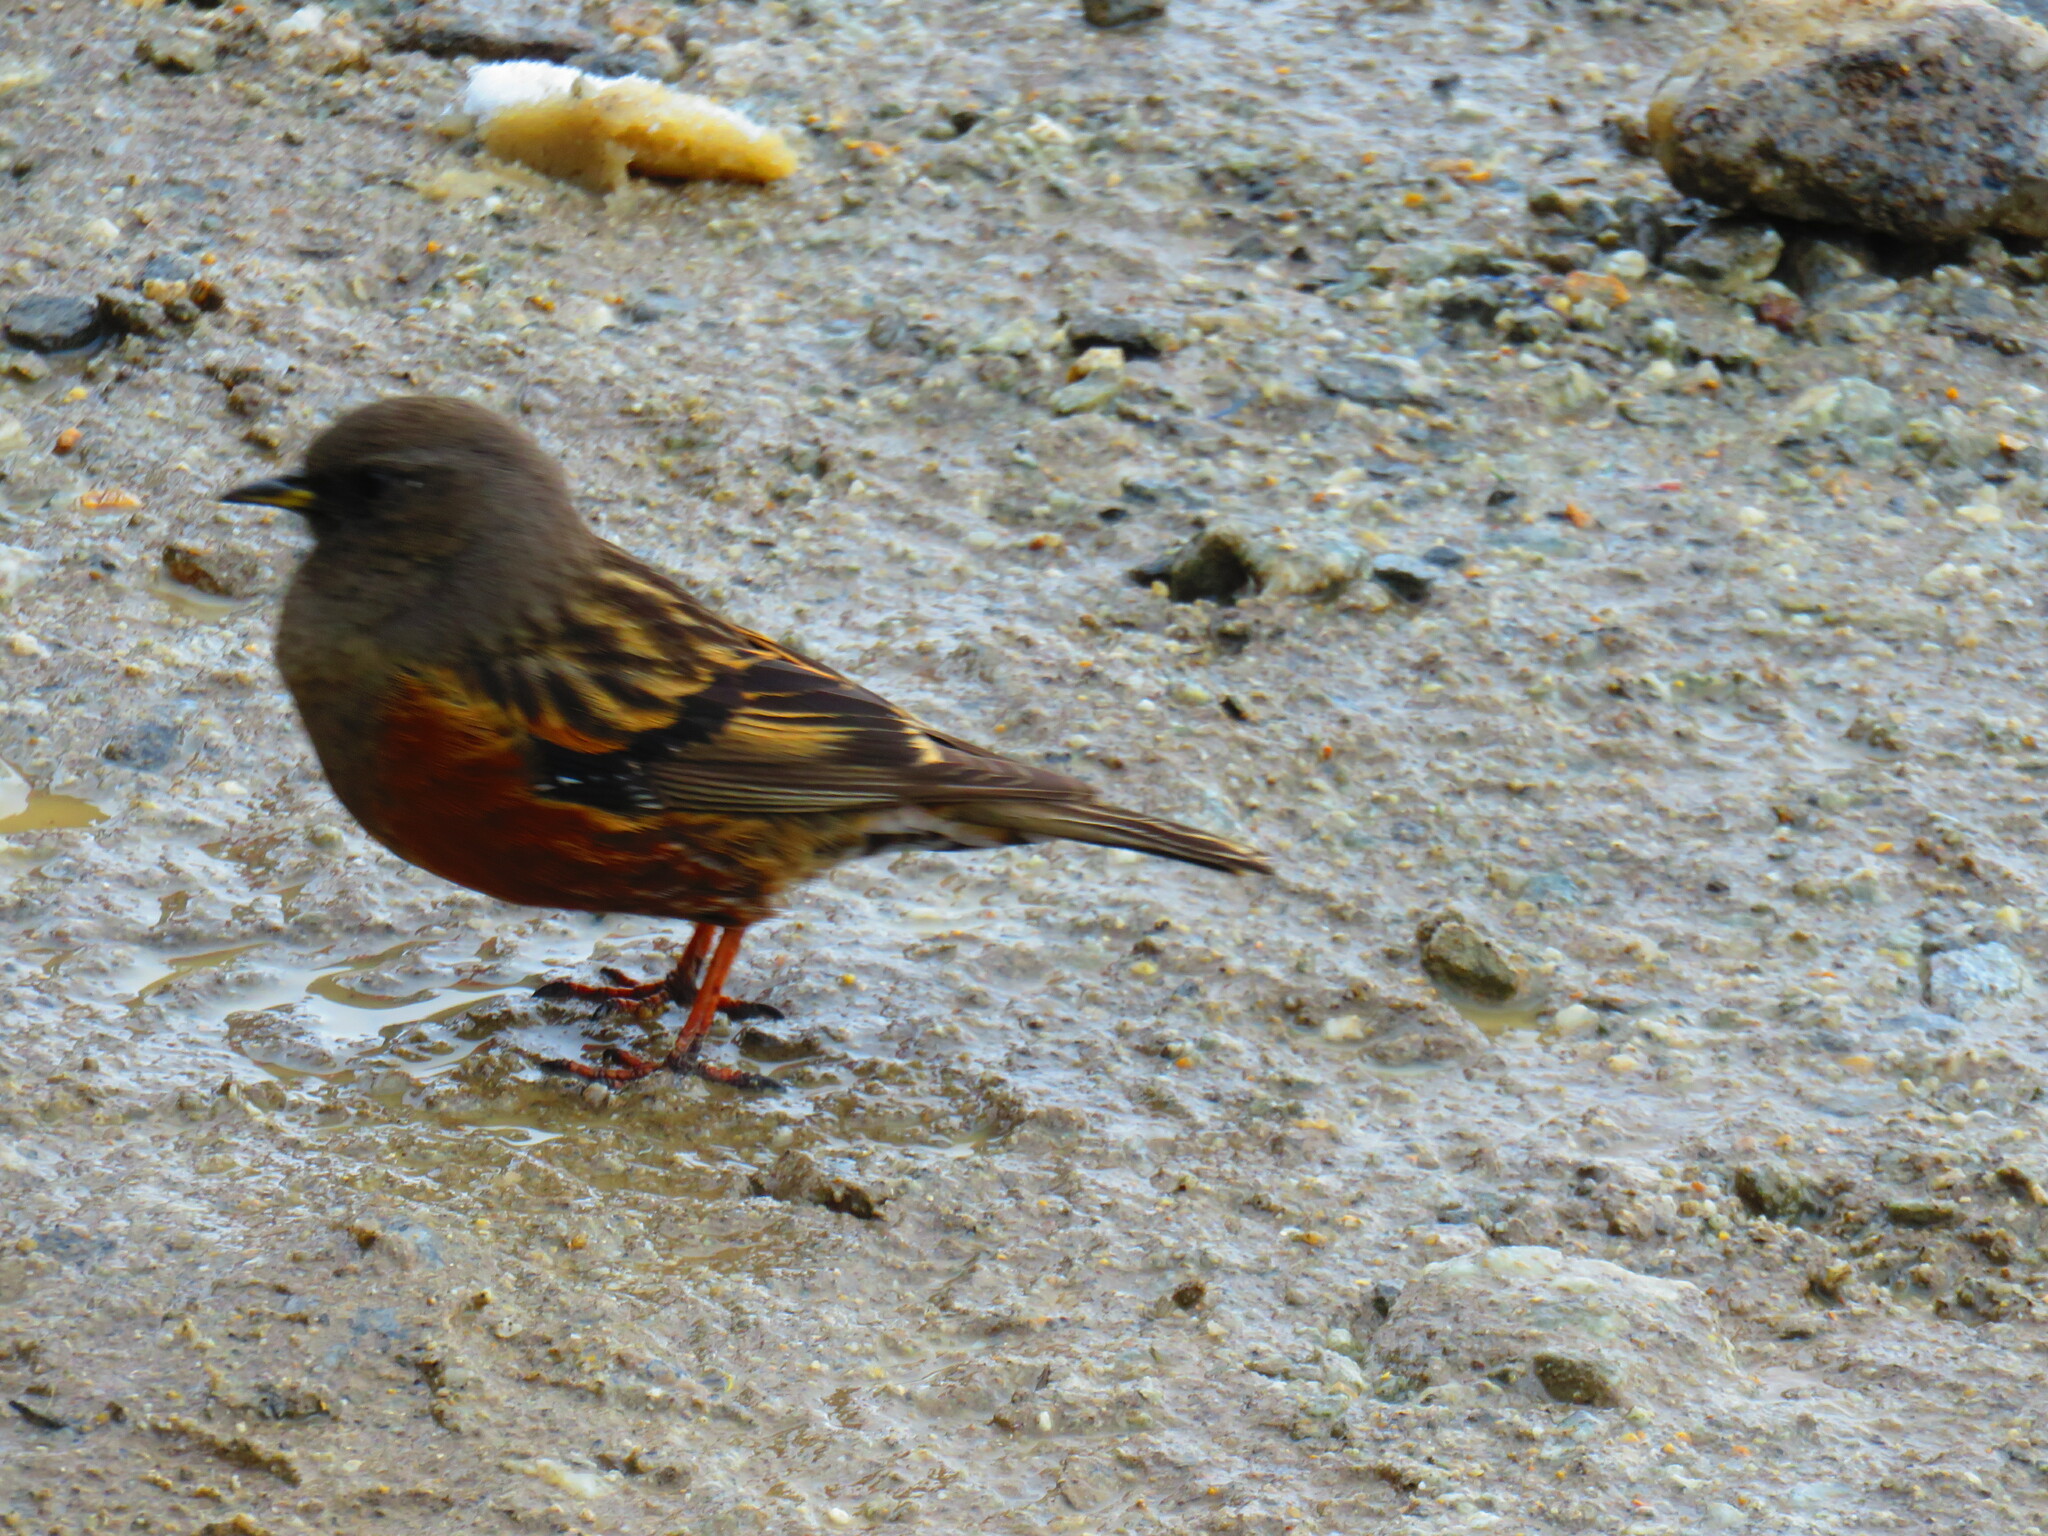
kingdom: Animalia
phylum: Chordata
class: Aves
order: Passeriformes
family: Prunellidae
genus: Prunella
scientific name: Prunella collaris
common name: Alpine accentor
